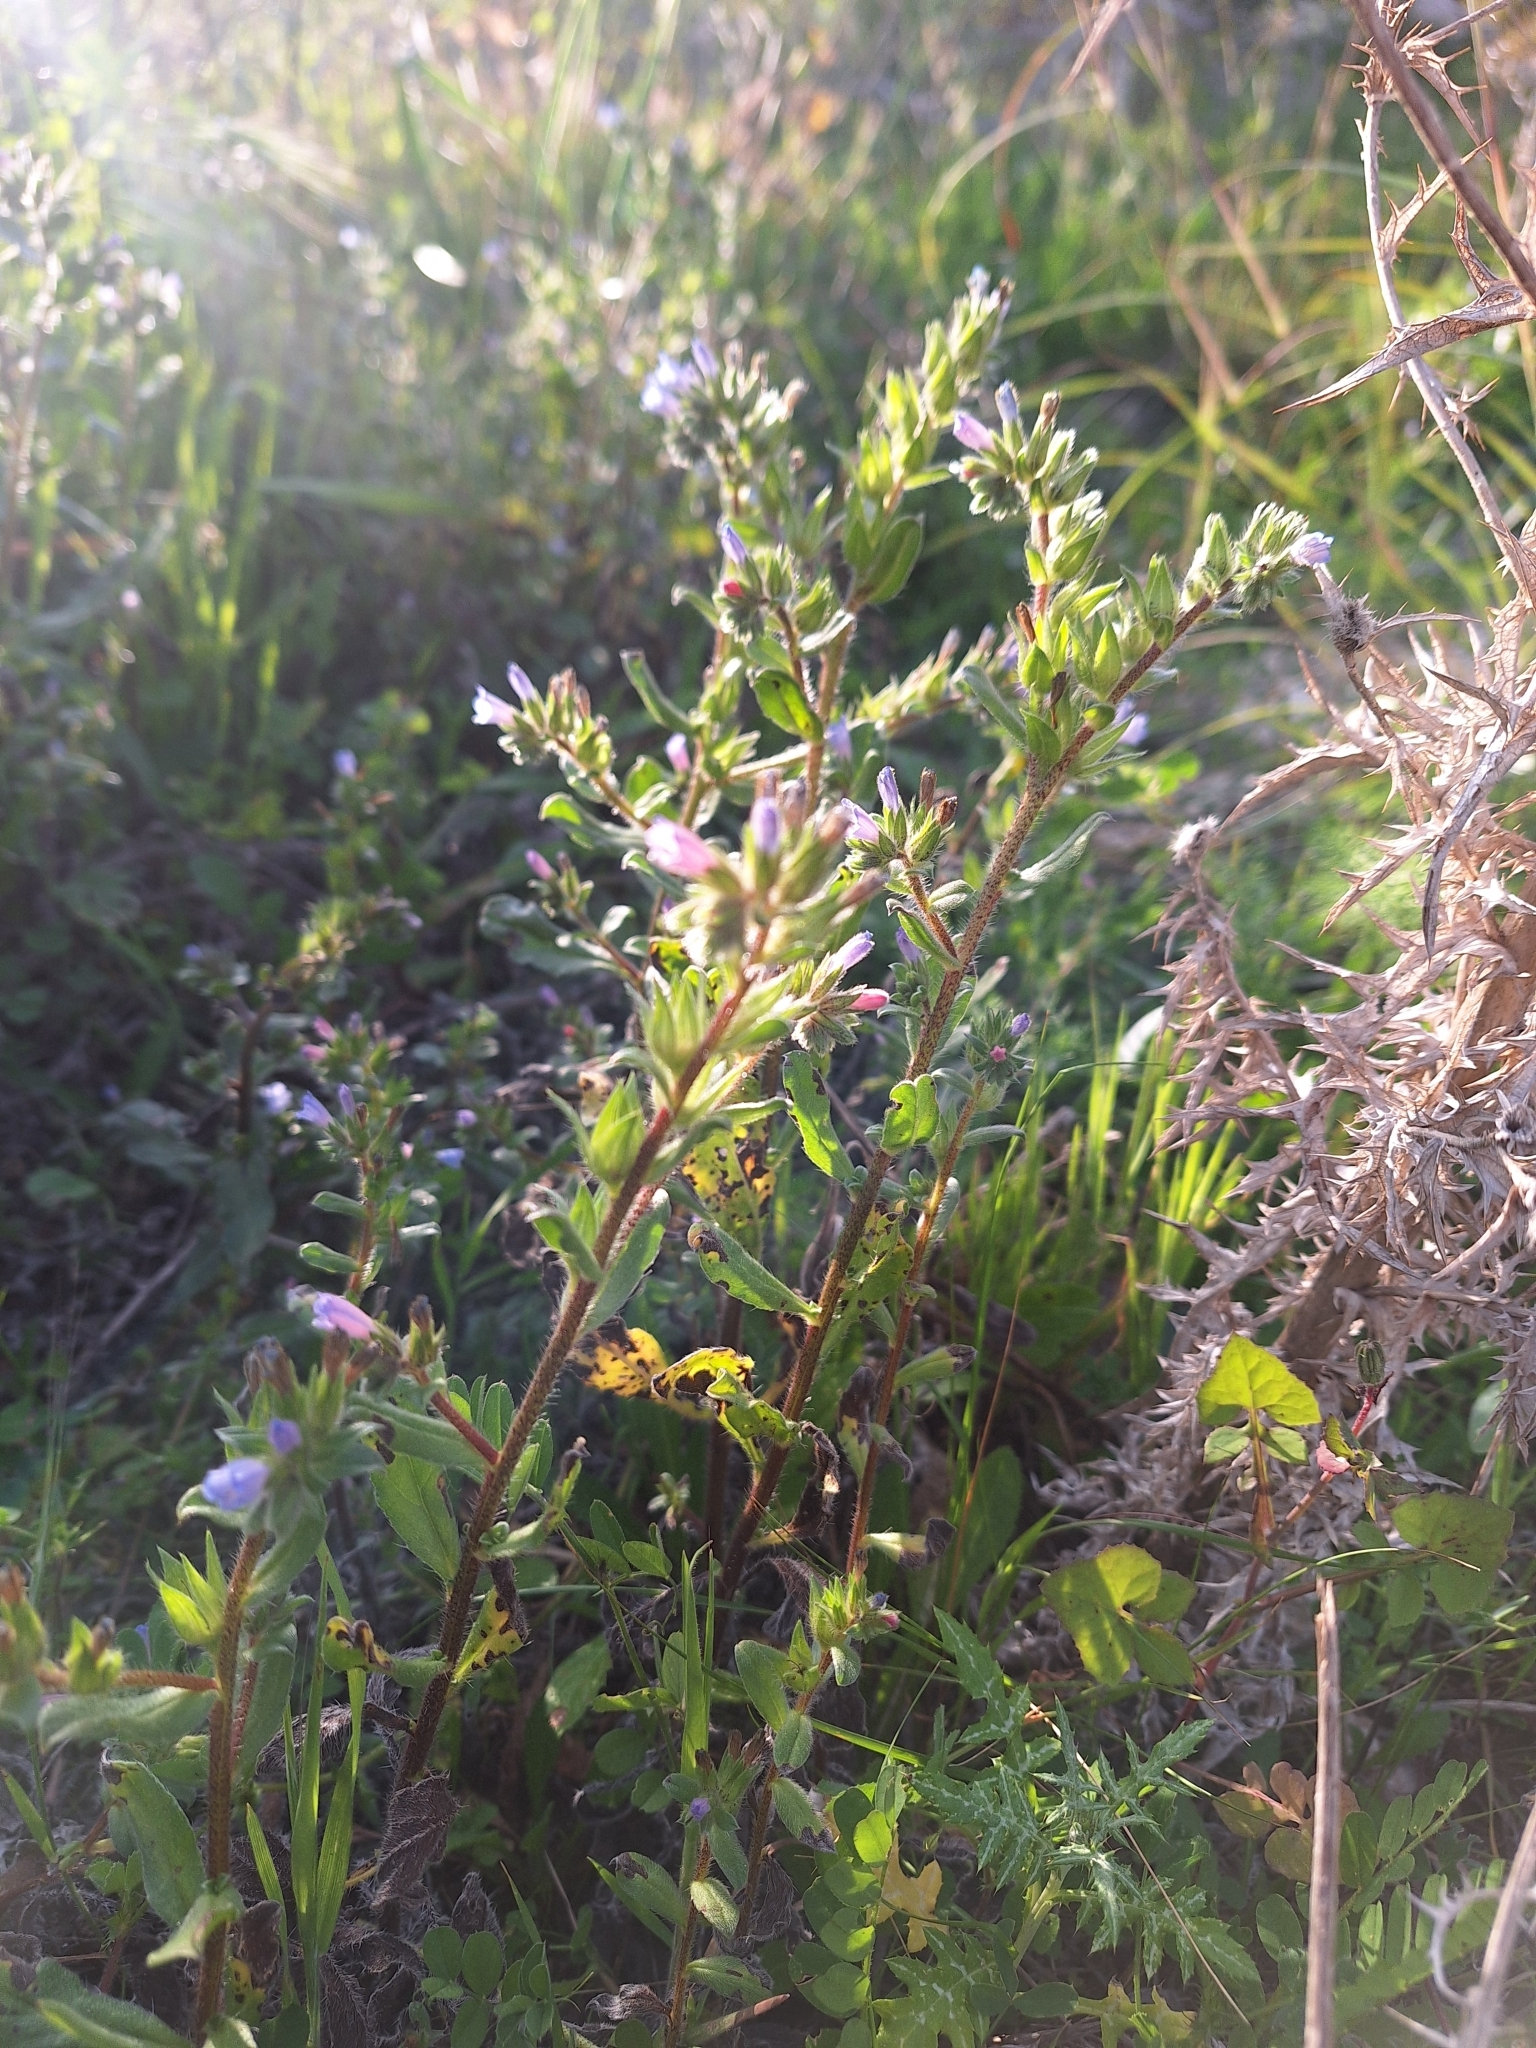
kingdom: Plantae
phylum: Tracheophyta
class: Magnoliopsida
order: Boraginales
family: Boraginaceae
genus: Echium
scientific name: Echium parviflorum
